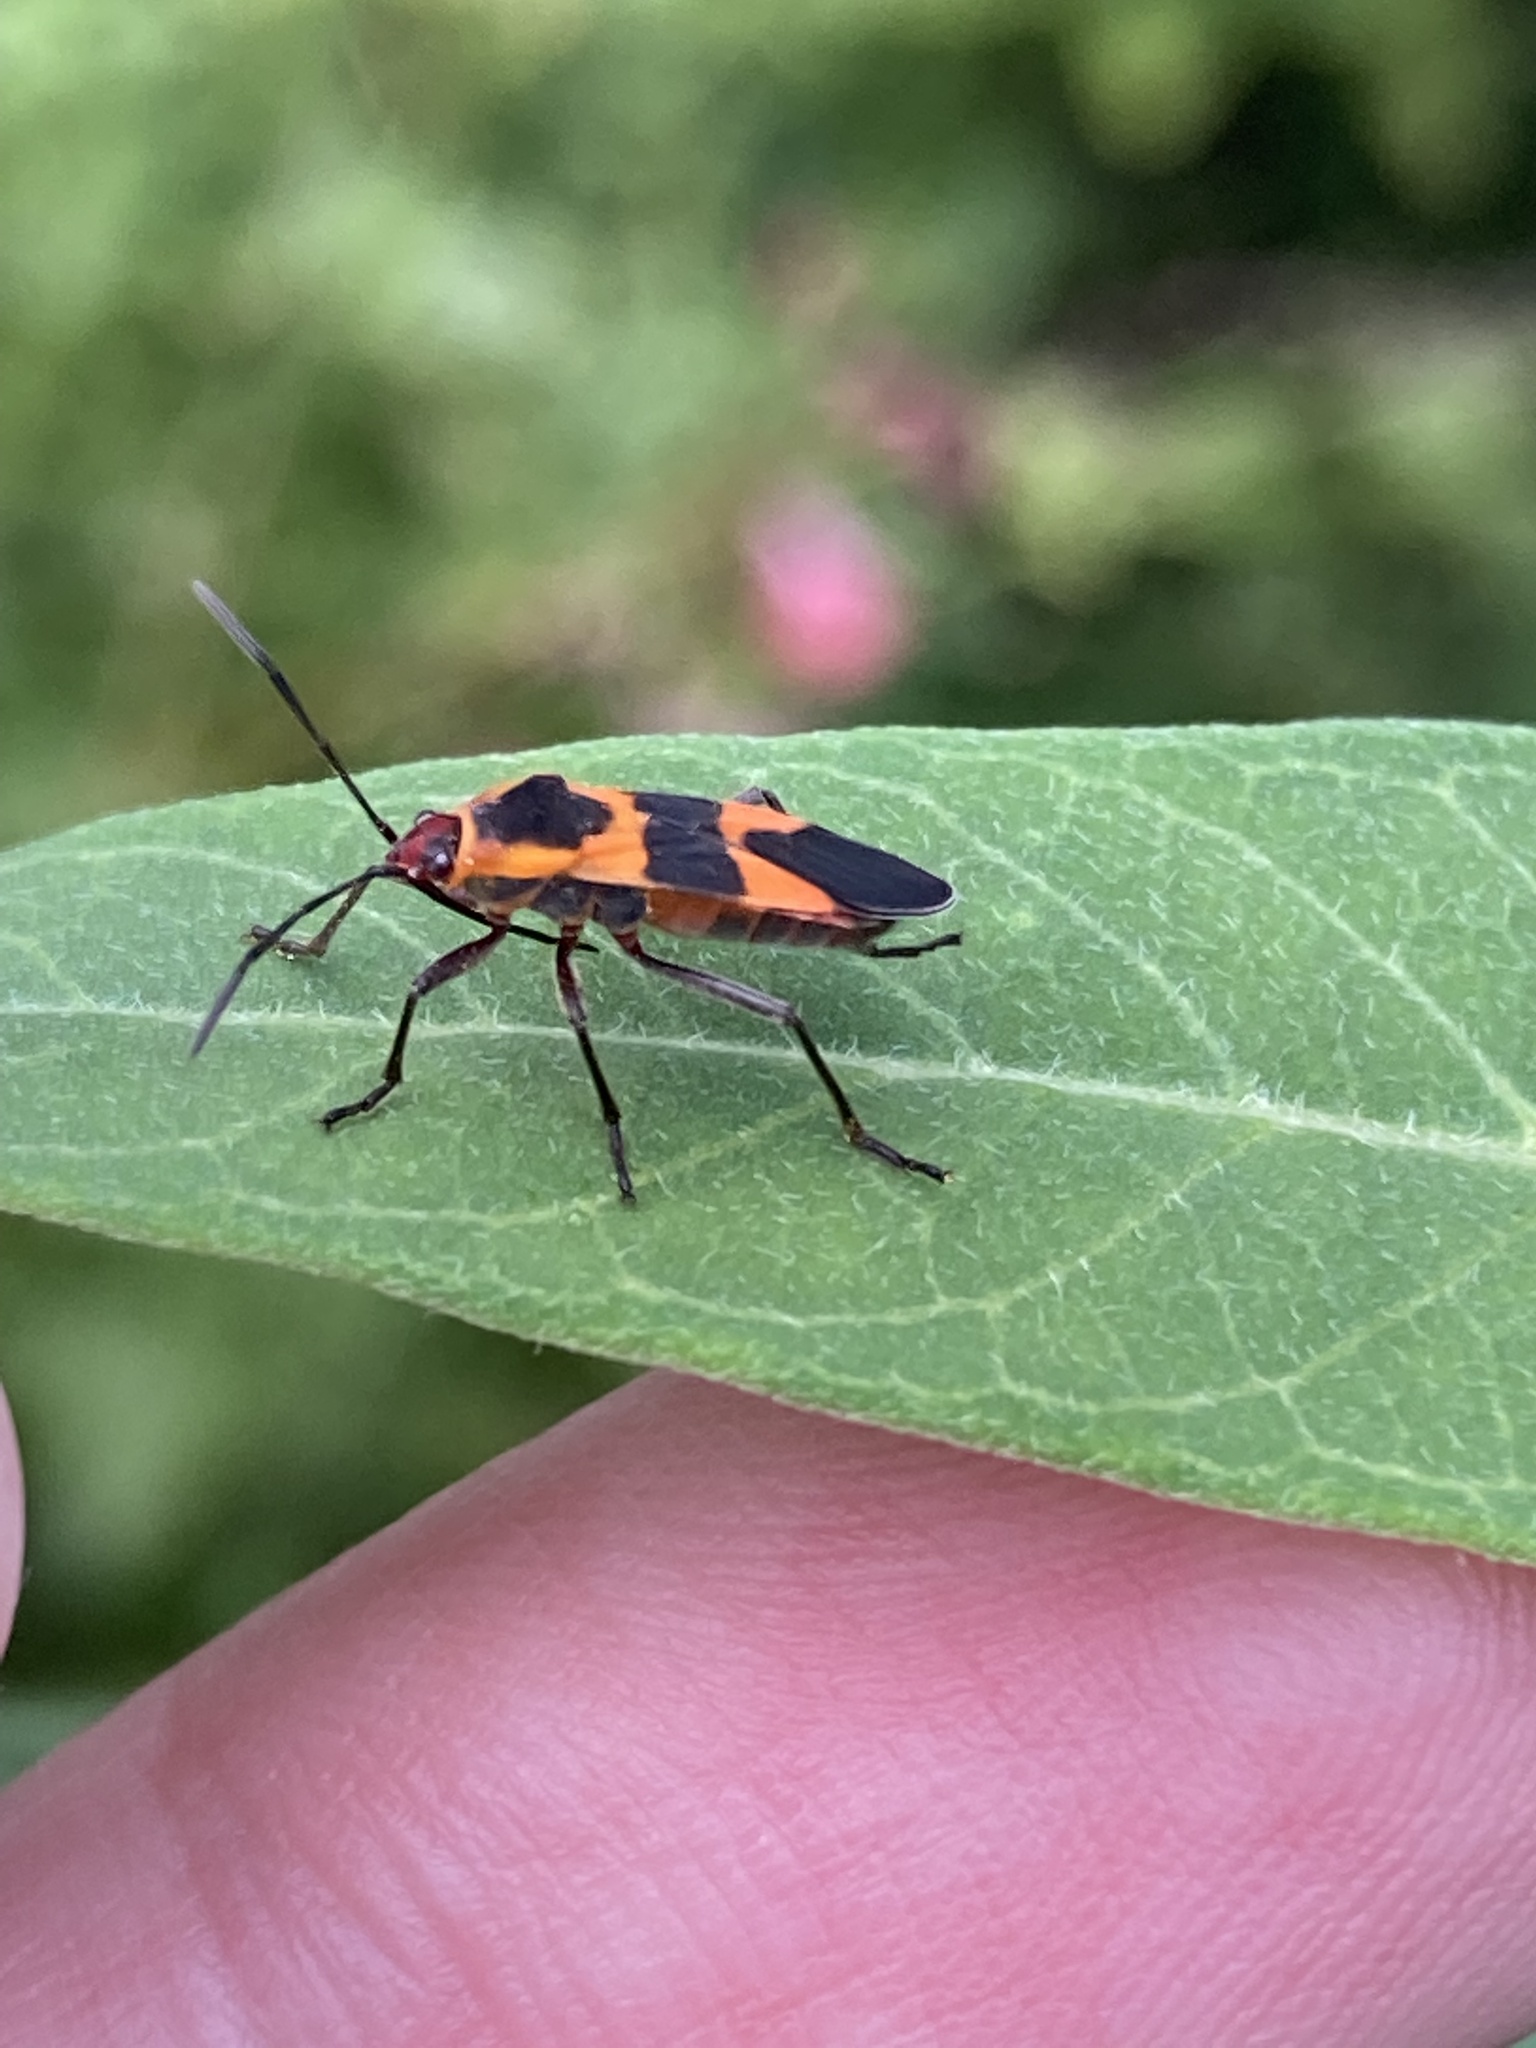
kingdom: Animalia
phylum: Arthropoda
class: Insecta
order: Hemiptera
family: Lygaeidae
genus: Oncopeltus
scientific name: Oncopeltus cingulifer
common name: Lygaeid bug
